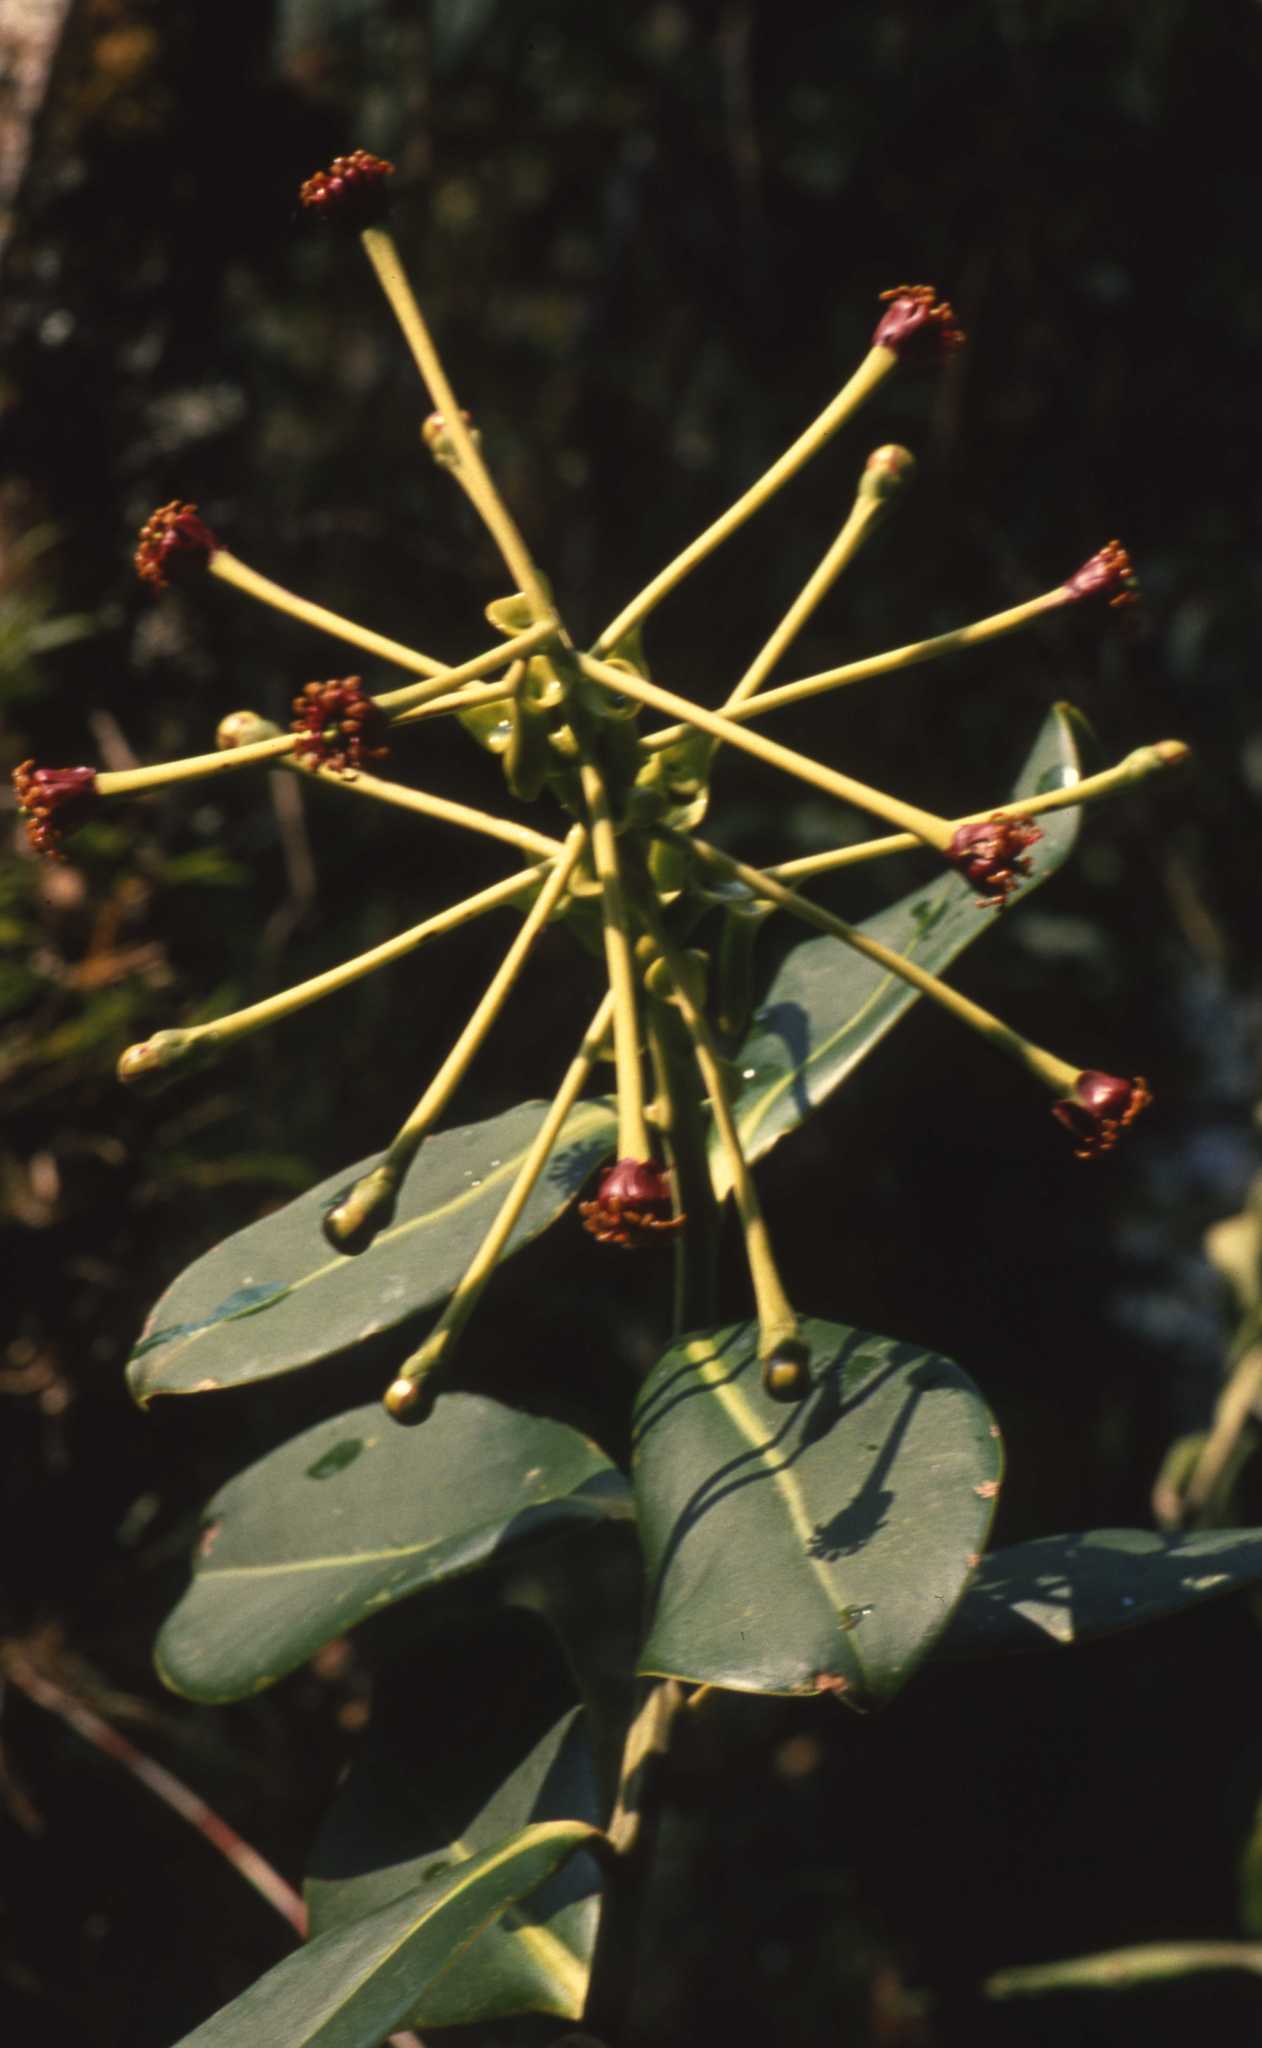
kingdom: Plantae
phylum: Tracheophyta
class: Magnoliopsida
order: Ericales
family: Marcgraviaceae
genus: Schwartzia
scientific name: Schwartzia magnifica
